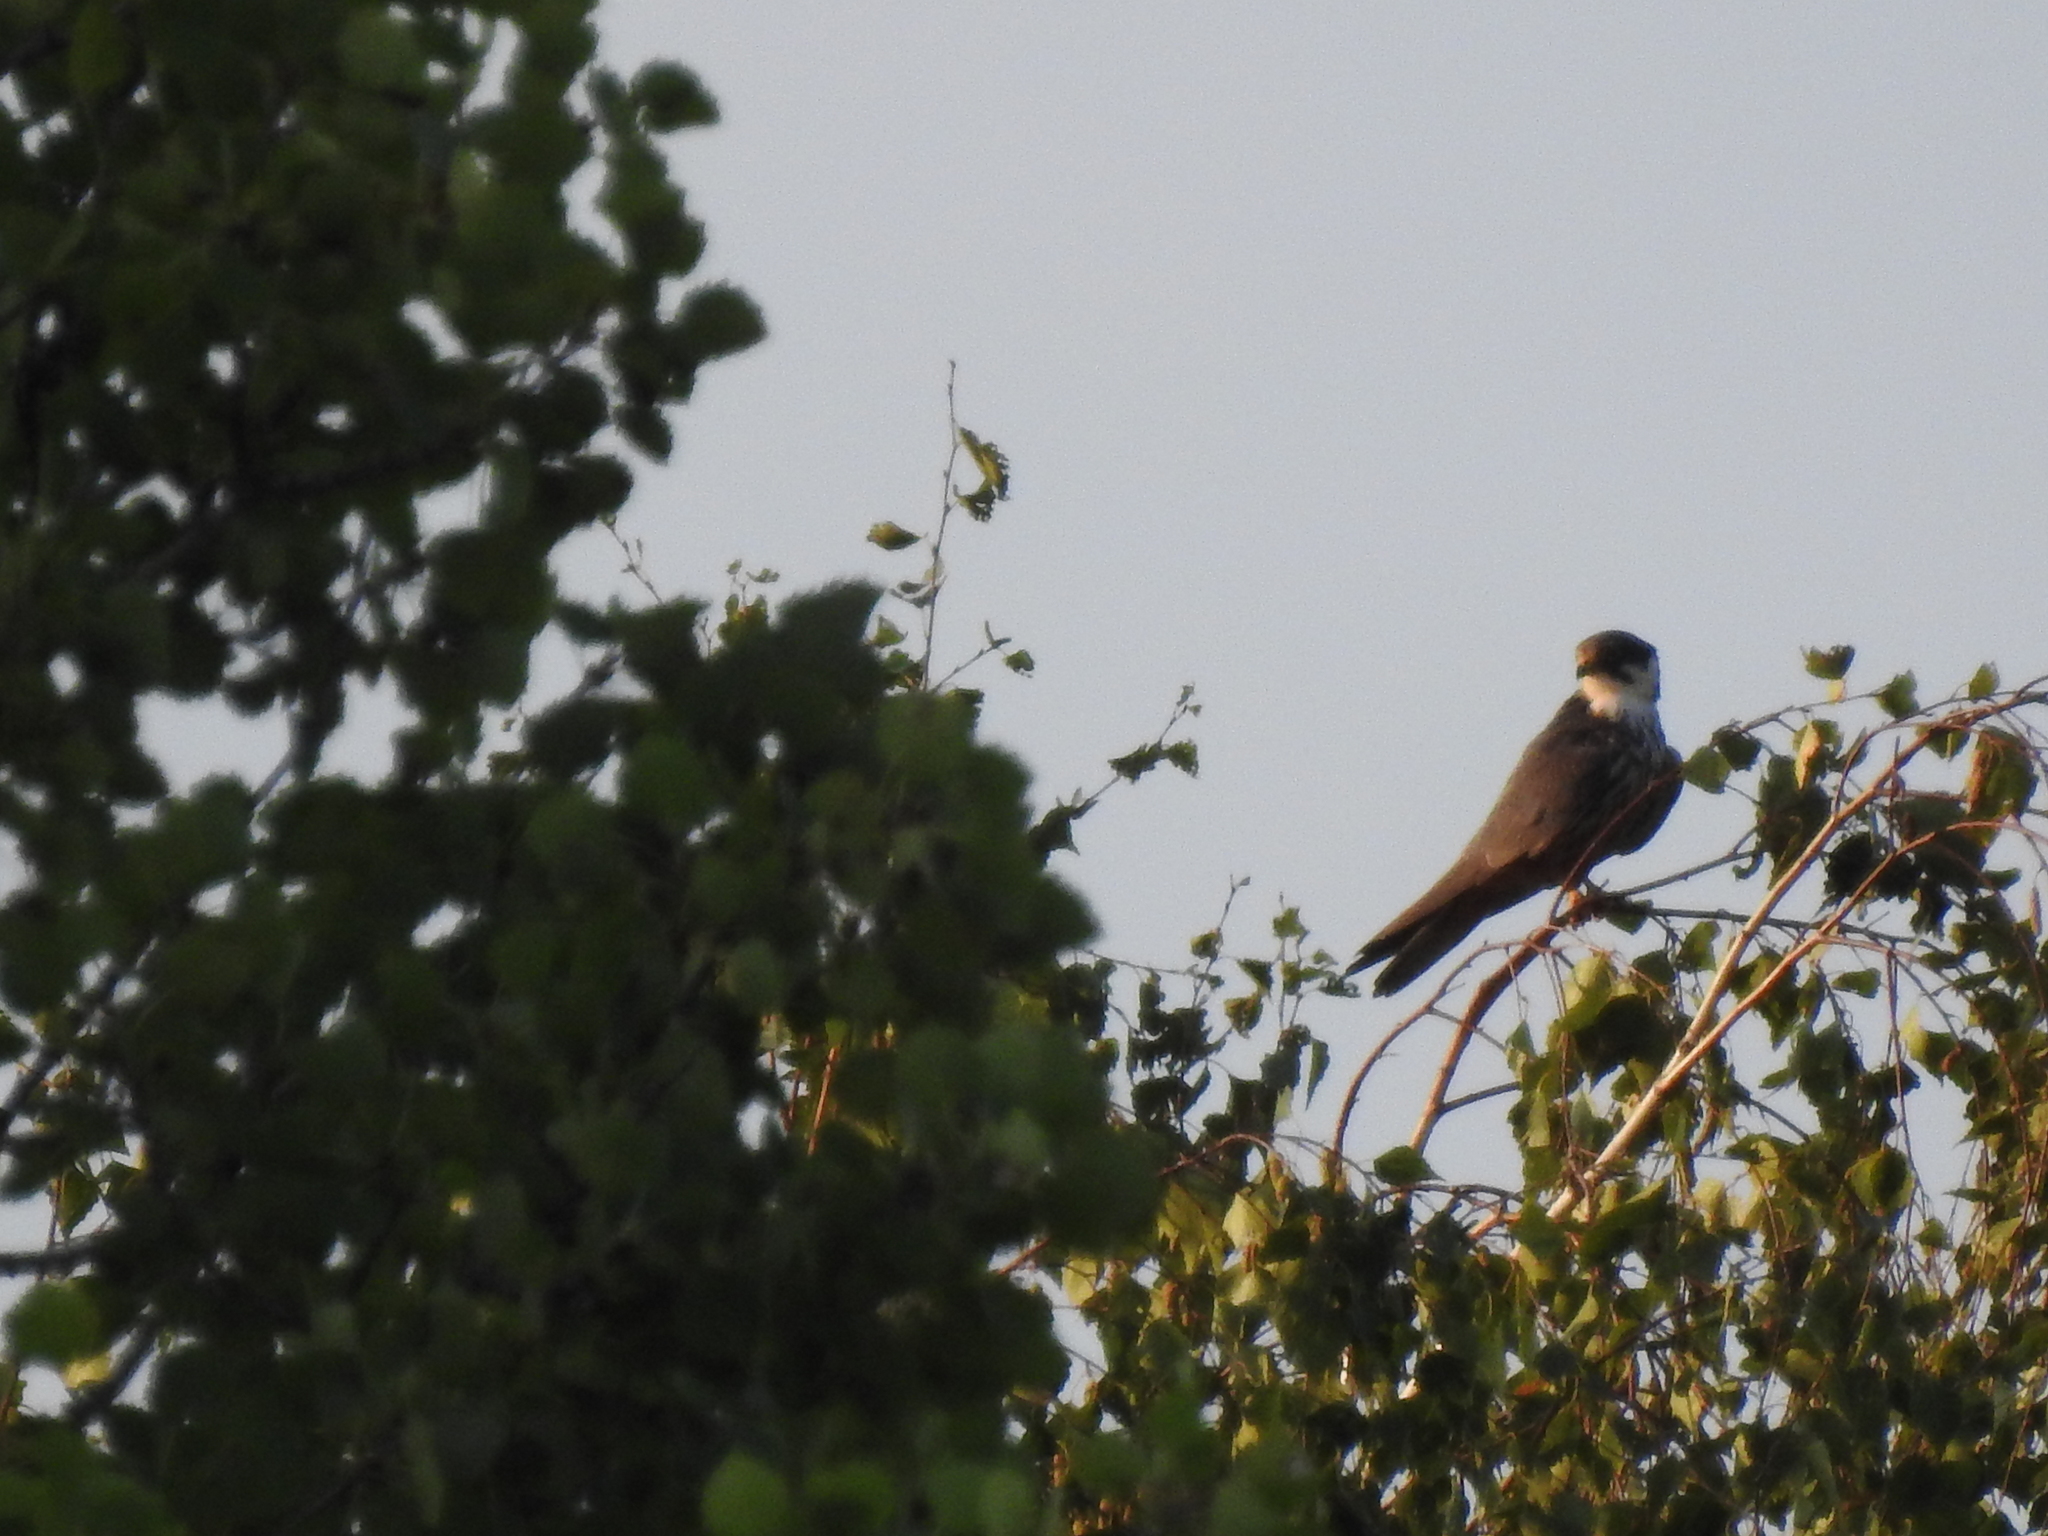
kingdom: Animalia
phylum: Chordata
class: Aves
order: Falconiformes
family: Falconidae
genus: Falco
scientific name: Falco subbuteo
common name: Eurasian hobby
